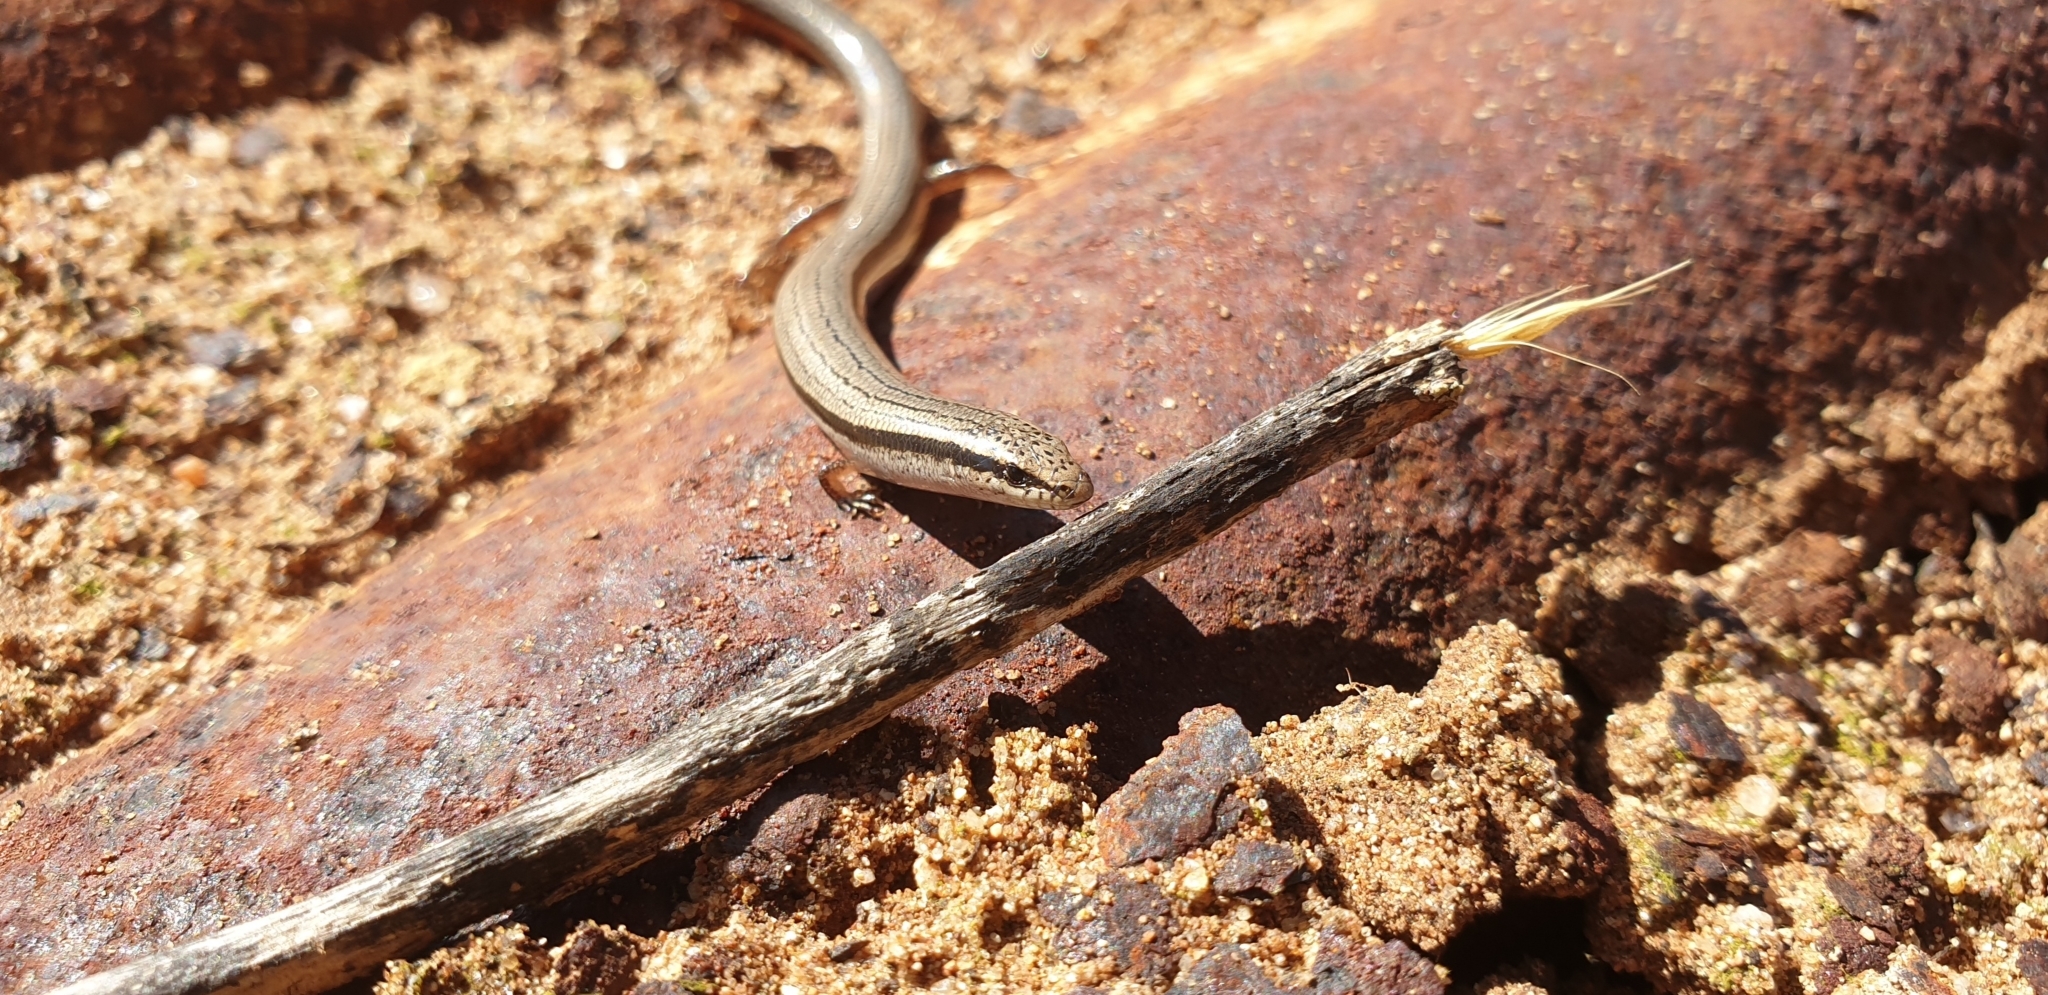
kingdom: Animalia
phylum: Chordata
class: Squamata
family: Scincidae
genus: Lerista
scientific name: Lerista dorsalis
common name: Southern slider
